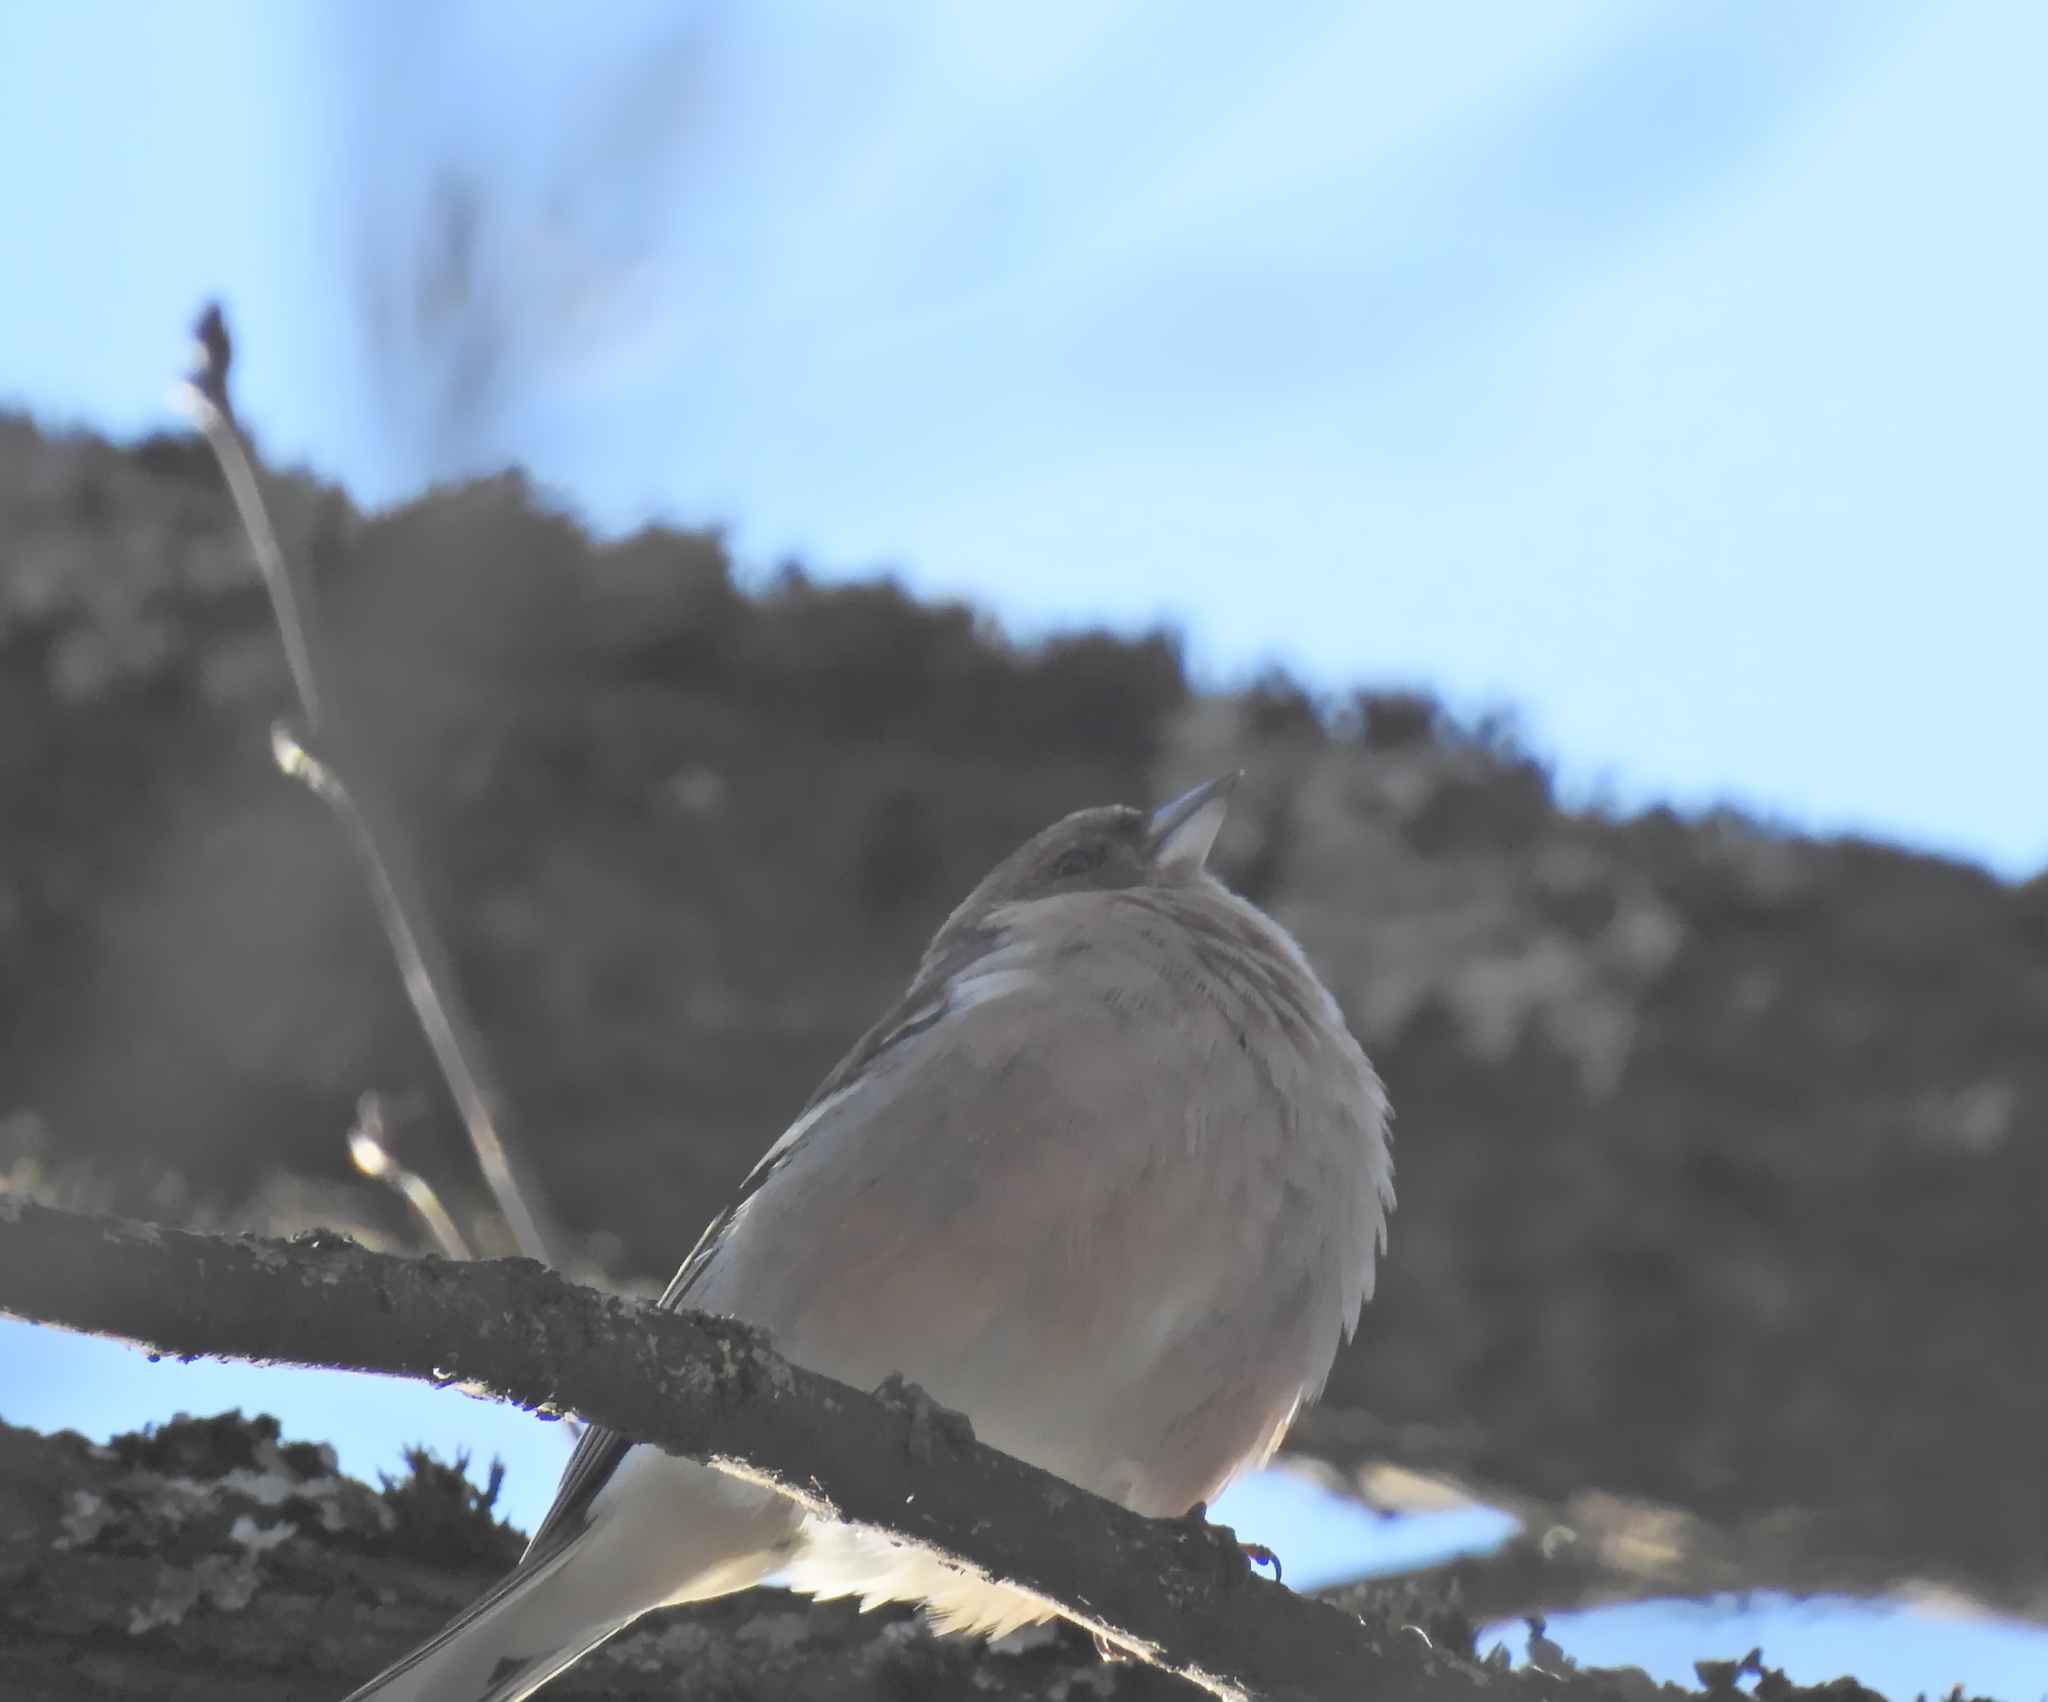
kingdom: Animalia
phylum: Chordata
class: Aves
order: Passeriformes
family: Fringillidae
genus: Fringilla
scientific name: Fringilla coelebs
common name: Common chaffinch
